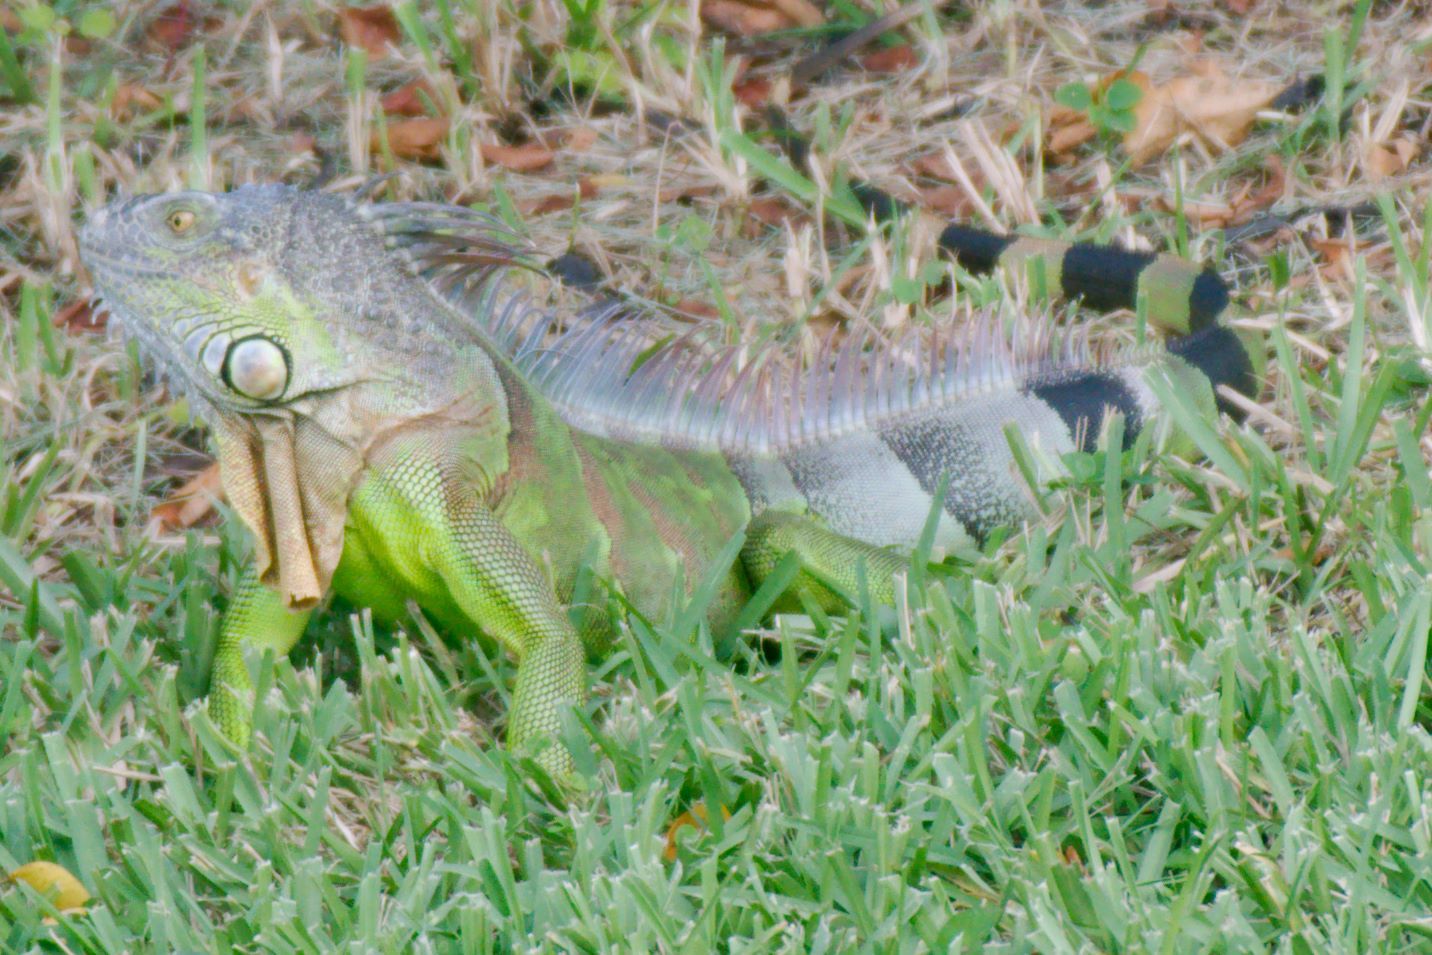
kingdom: Animalia
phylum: Chordata
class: Squamata
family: Iguanidae
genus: Iguana
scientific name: Iguana iguana
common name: Green iguana
